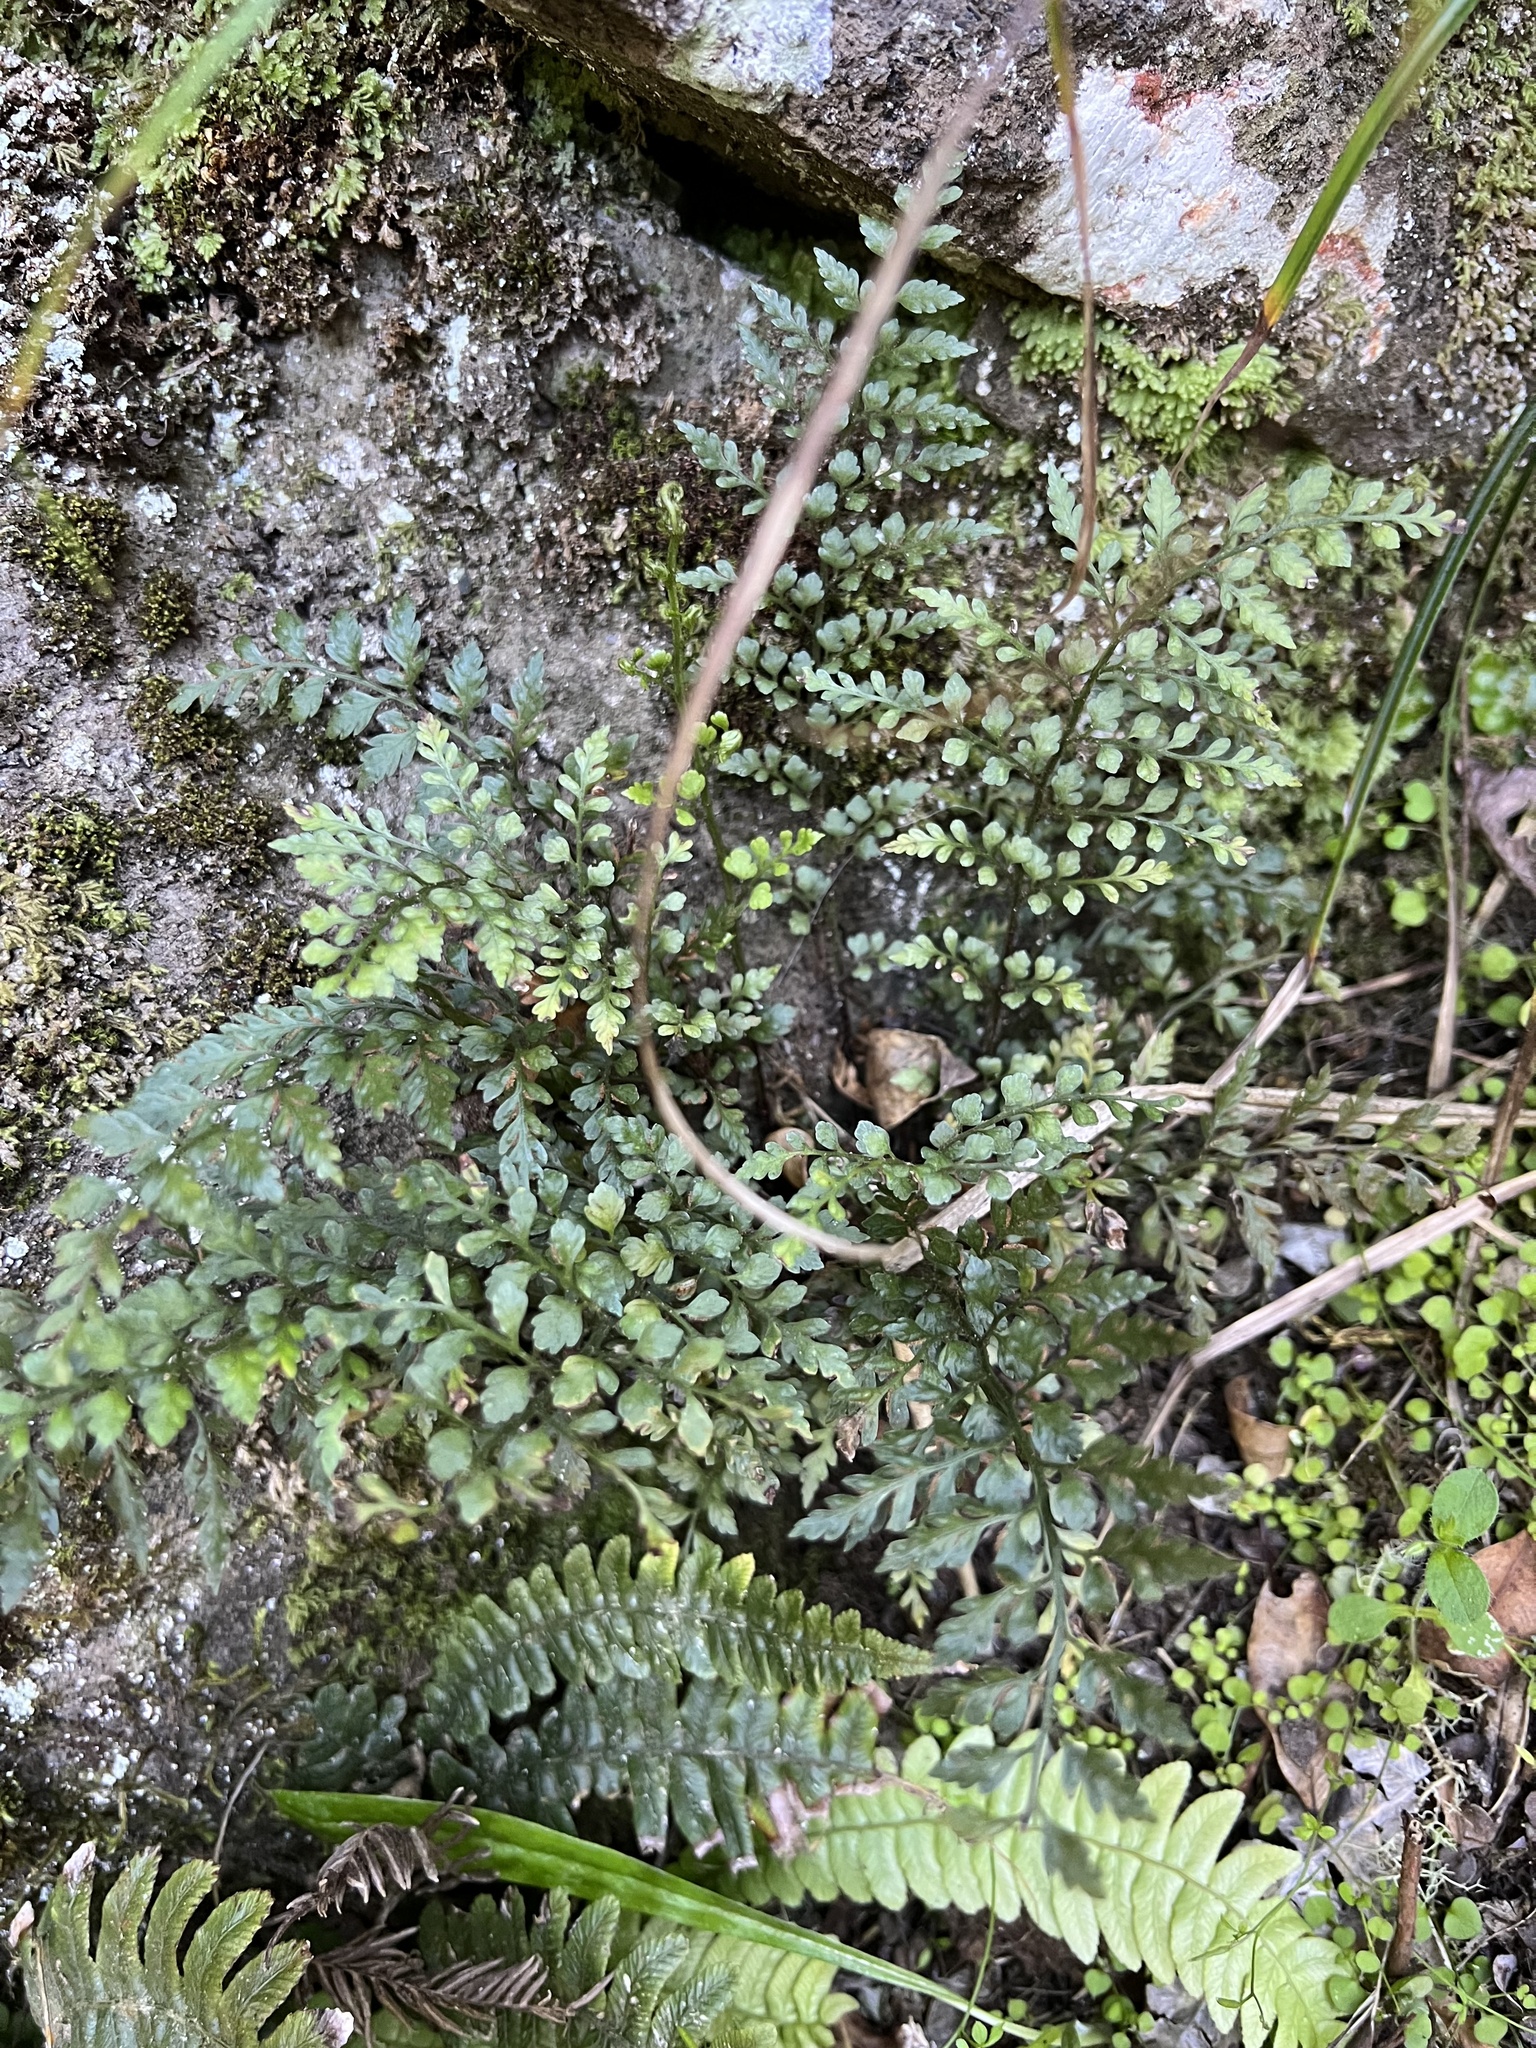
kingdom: Plantae
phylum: Tracheophyta
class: Polypodiopsida
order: Polypodiales
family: Aspleniaceae
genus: Asplenium
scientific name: Asplenium hookerianum
